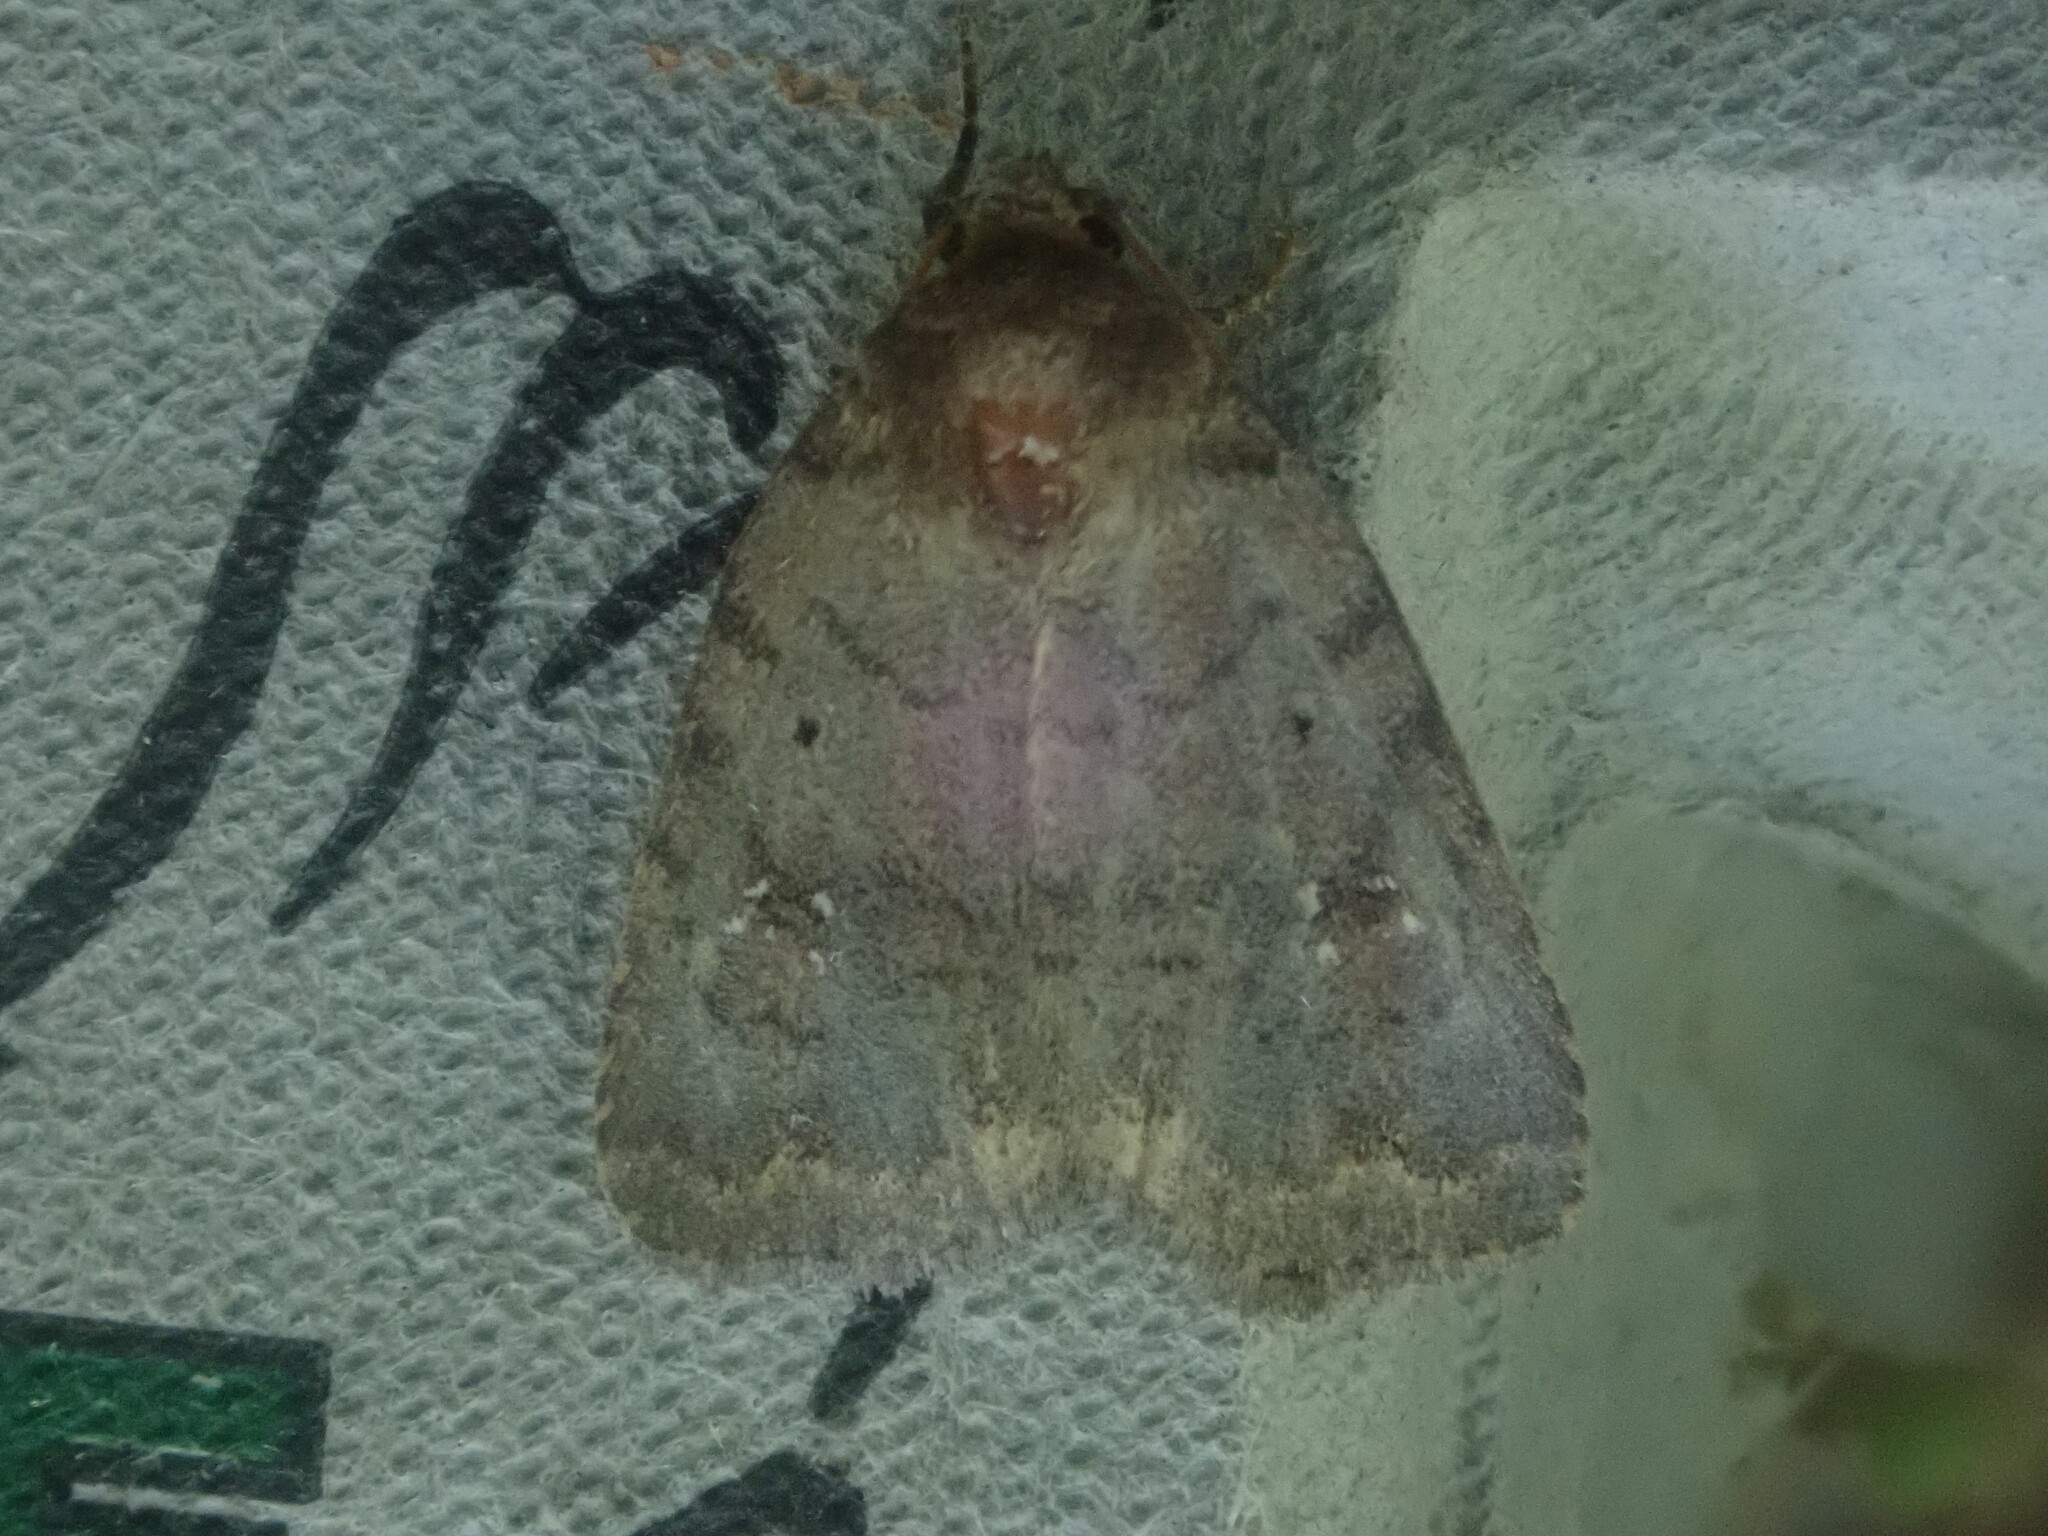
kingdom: Animalia
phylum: Arthropoda
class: Insecta
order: Lepidoptera
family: Noctuidae
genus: Athetis
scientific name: Athetis tarda
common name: Slowpoke moth
